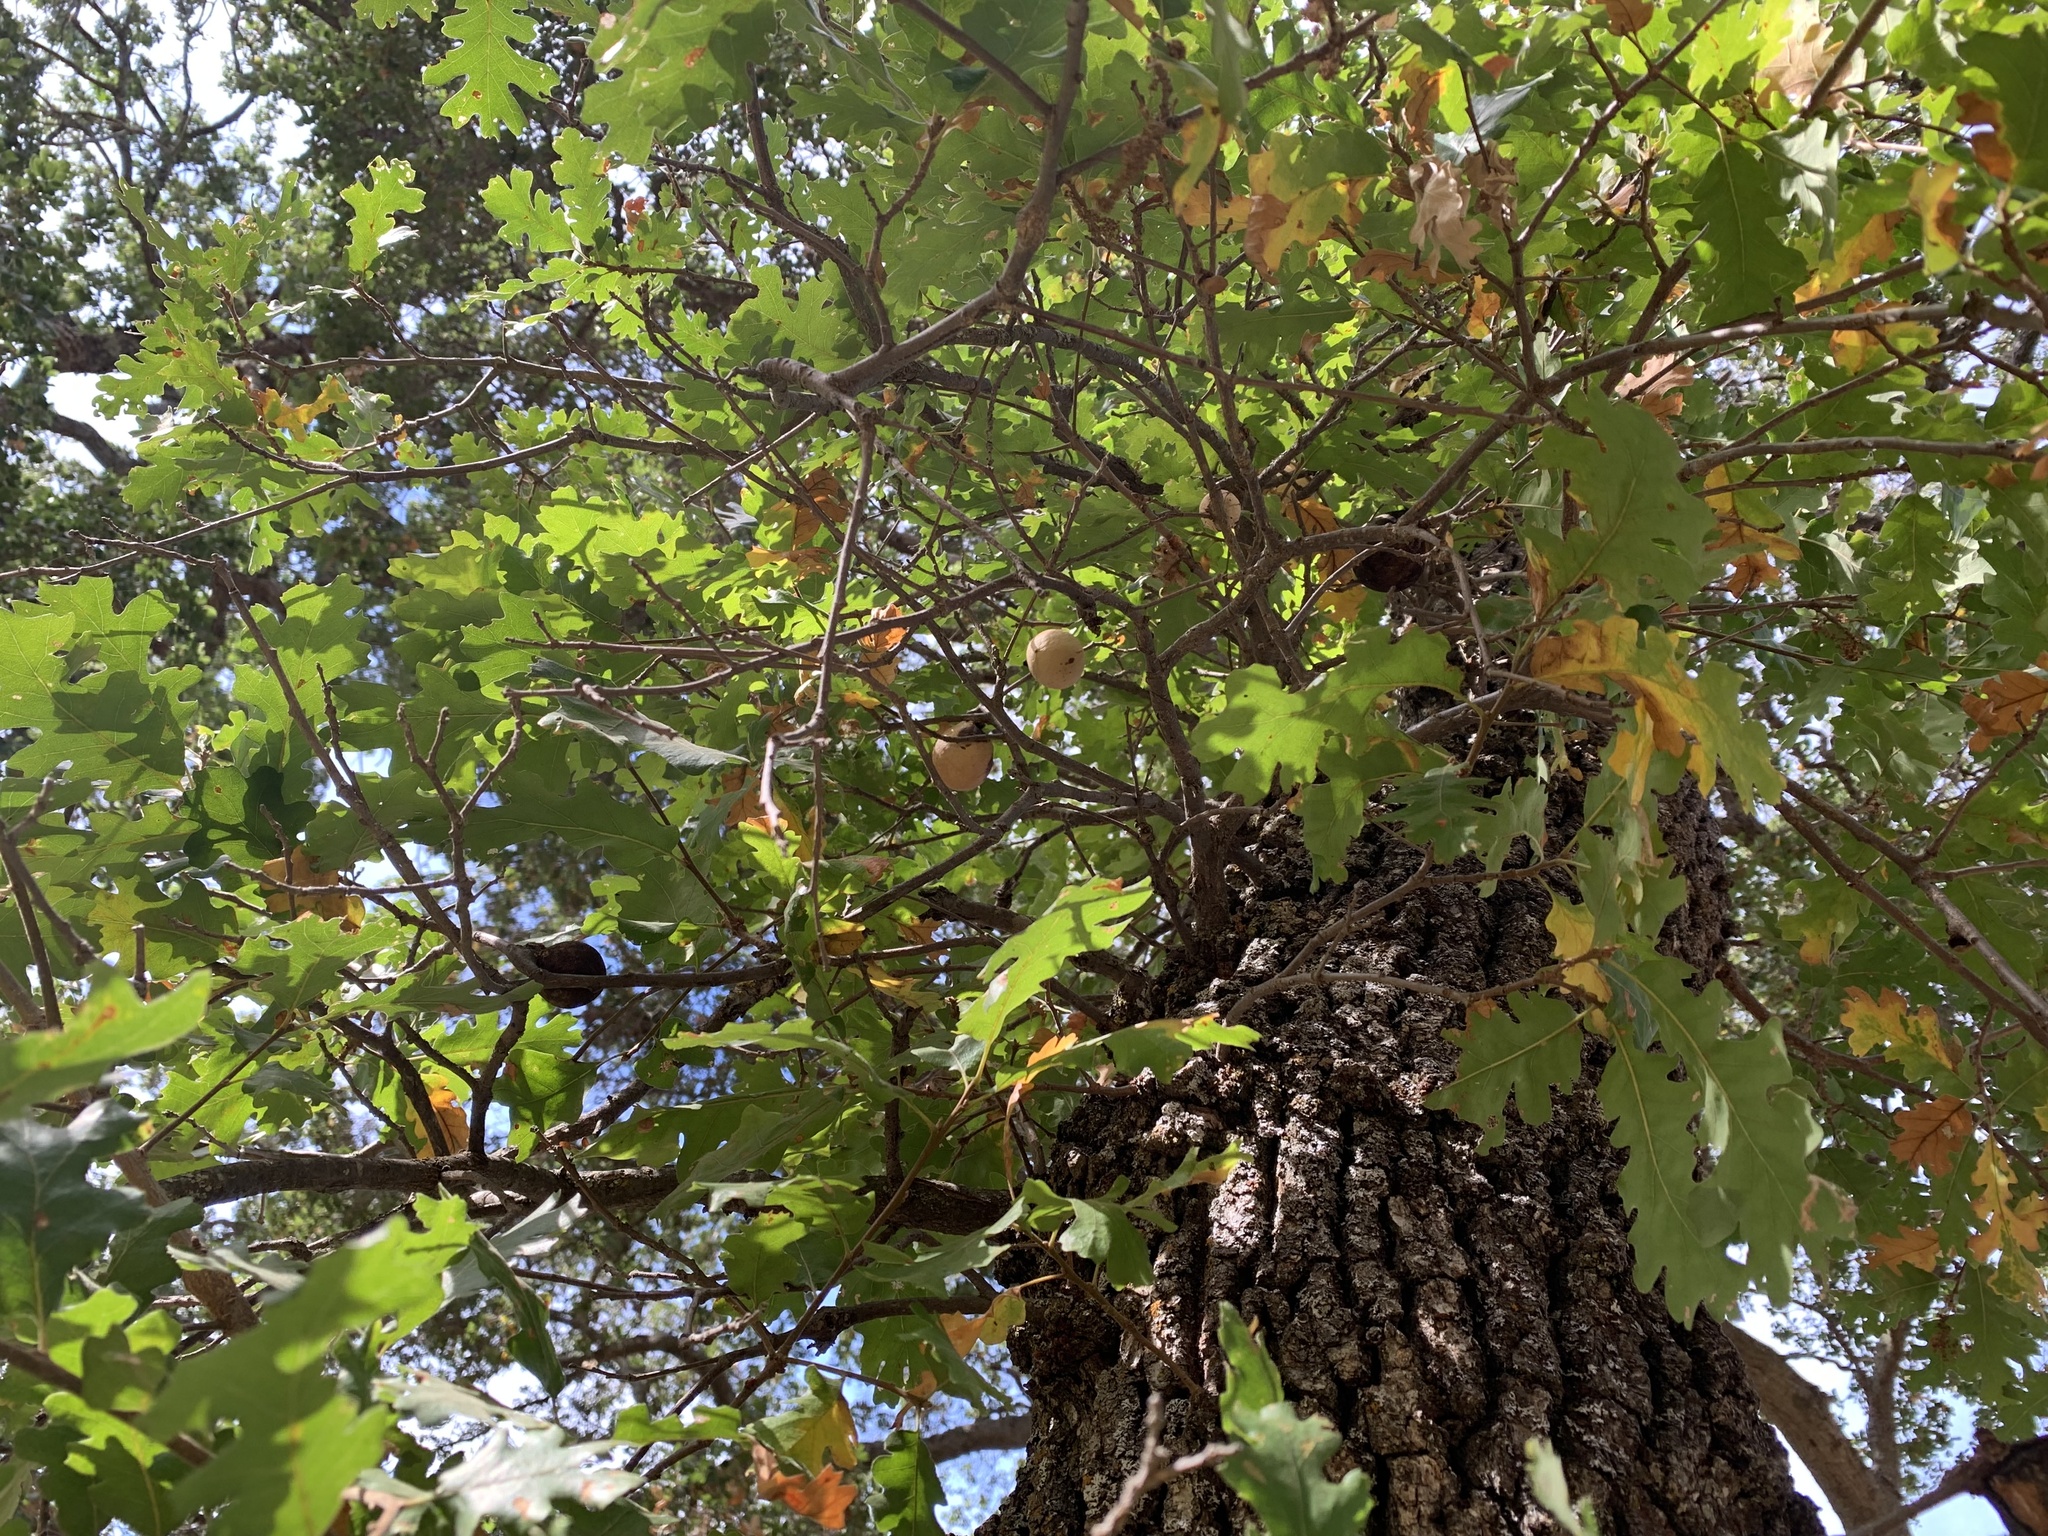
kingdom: Animalia
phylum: Arthropoda
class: Insecta
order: Hymenoptera
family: Cynipidae
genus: Andricus
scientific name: Andricus quercuscalifornicus
